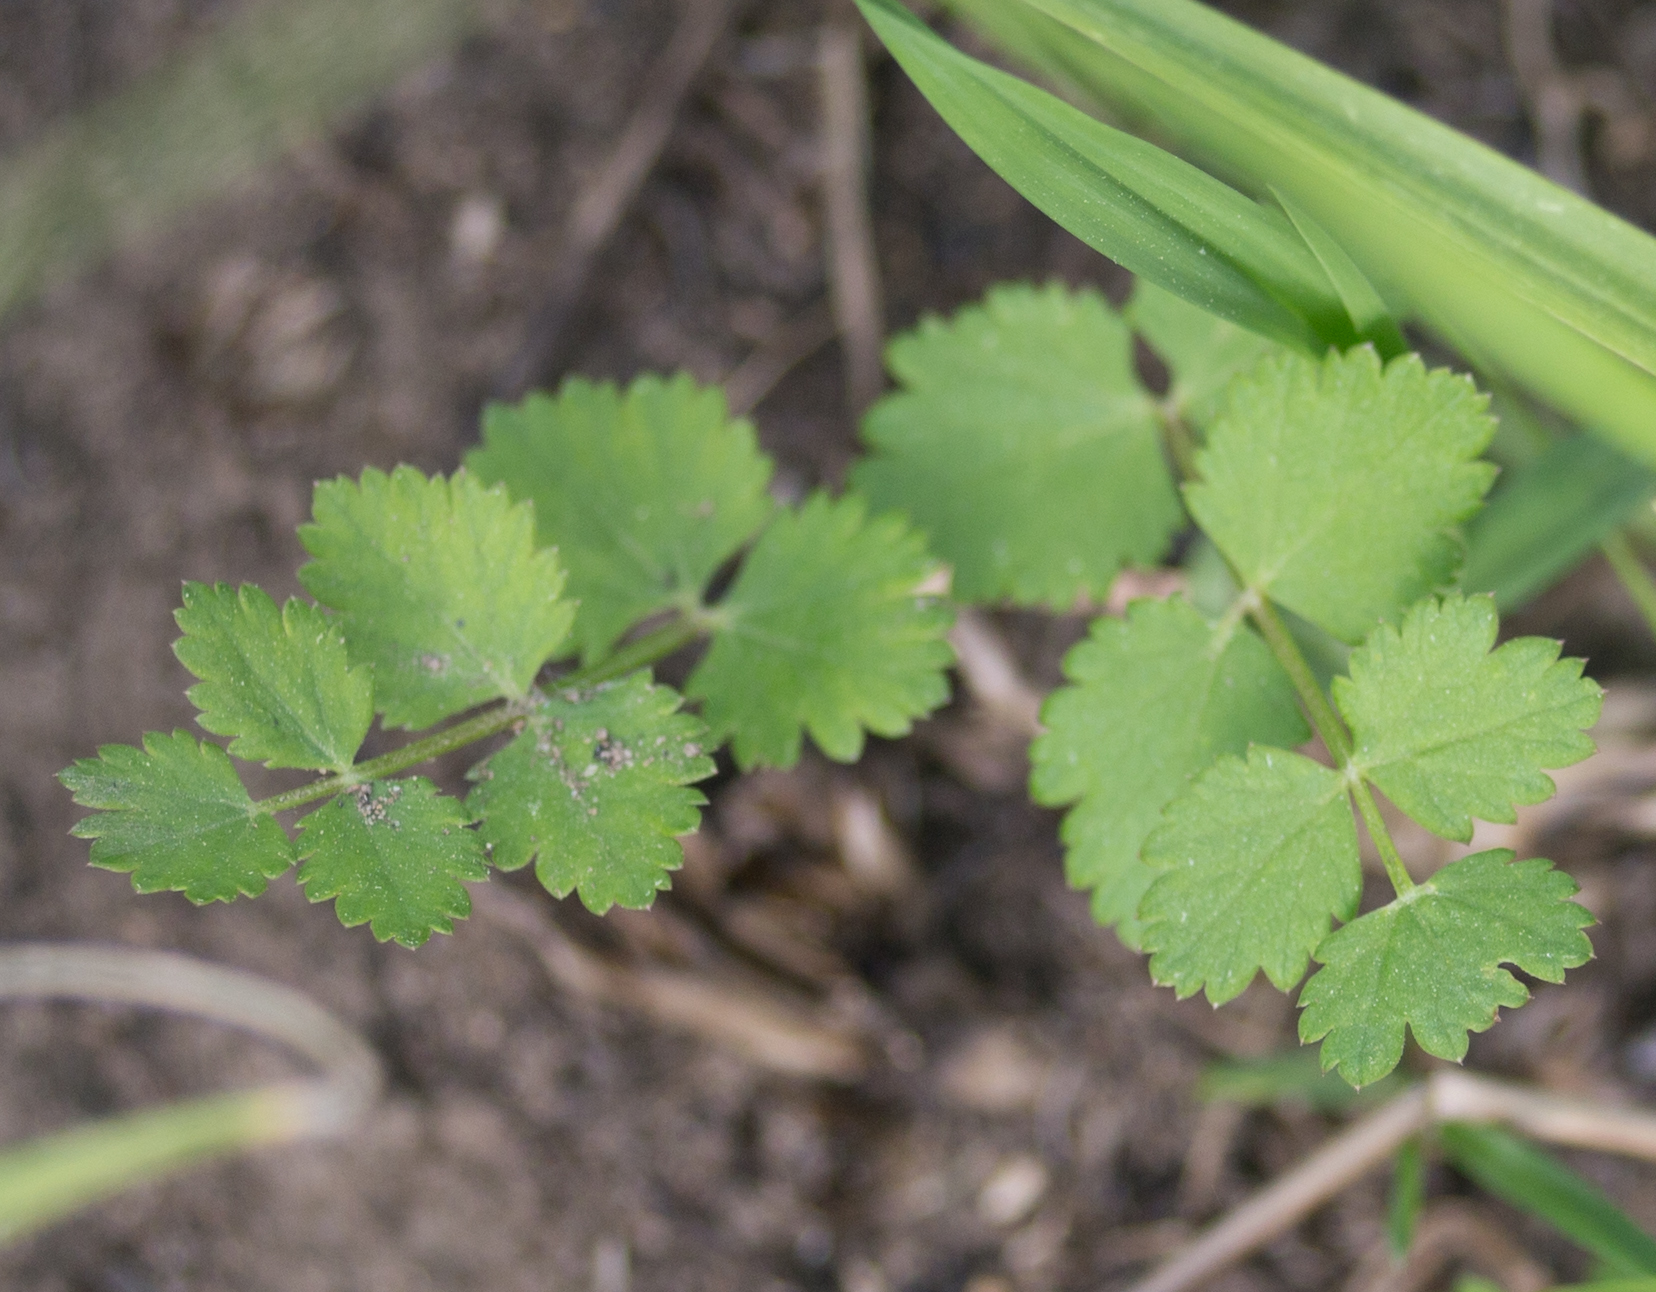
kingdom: Plantae
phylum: Tracheophyta
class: Magnoliopsida
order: Apiales
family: Apiaceae
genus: Pimpinella
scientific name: Pimpinella saxifraga
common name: Burnet-saxifrage
